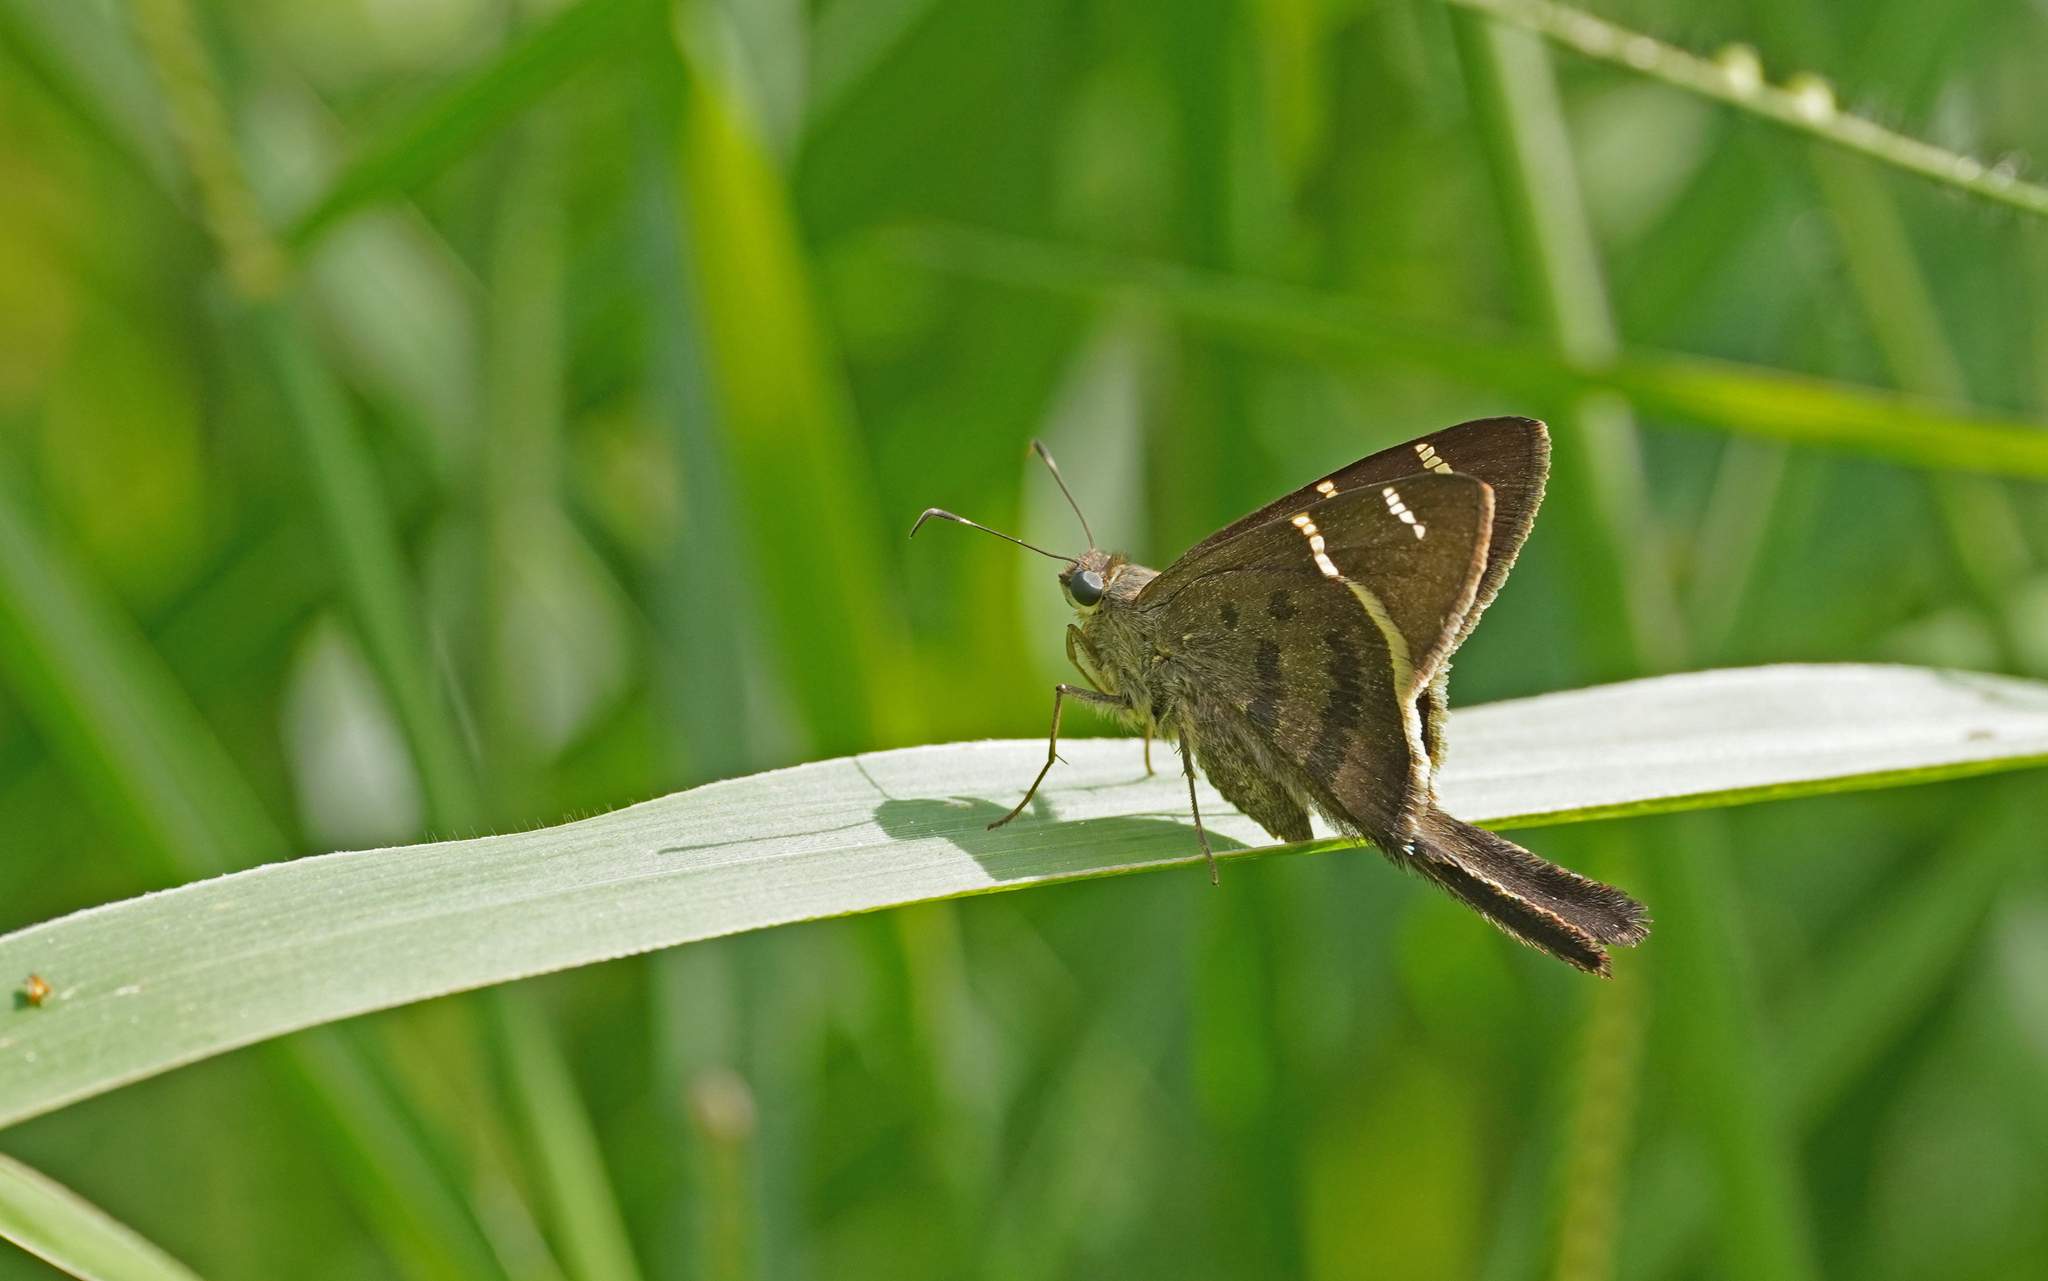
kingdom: Animalia
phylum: Arthropoda
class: Insecta
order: Lepidoptera
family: Hesperiidae
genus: Urbanus
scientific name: Urbanus tanna
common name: Tanna longtail
